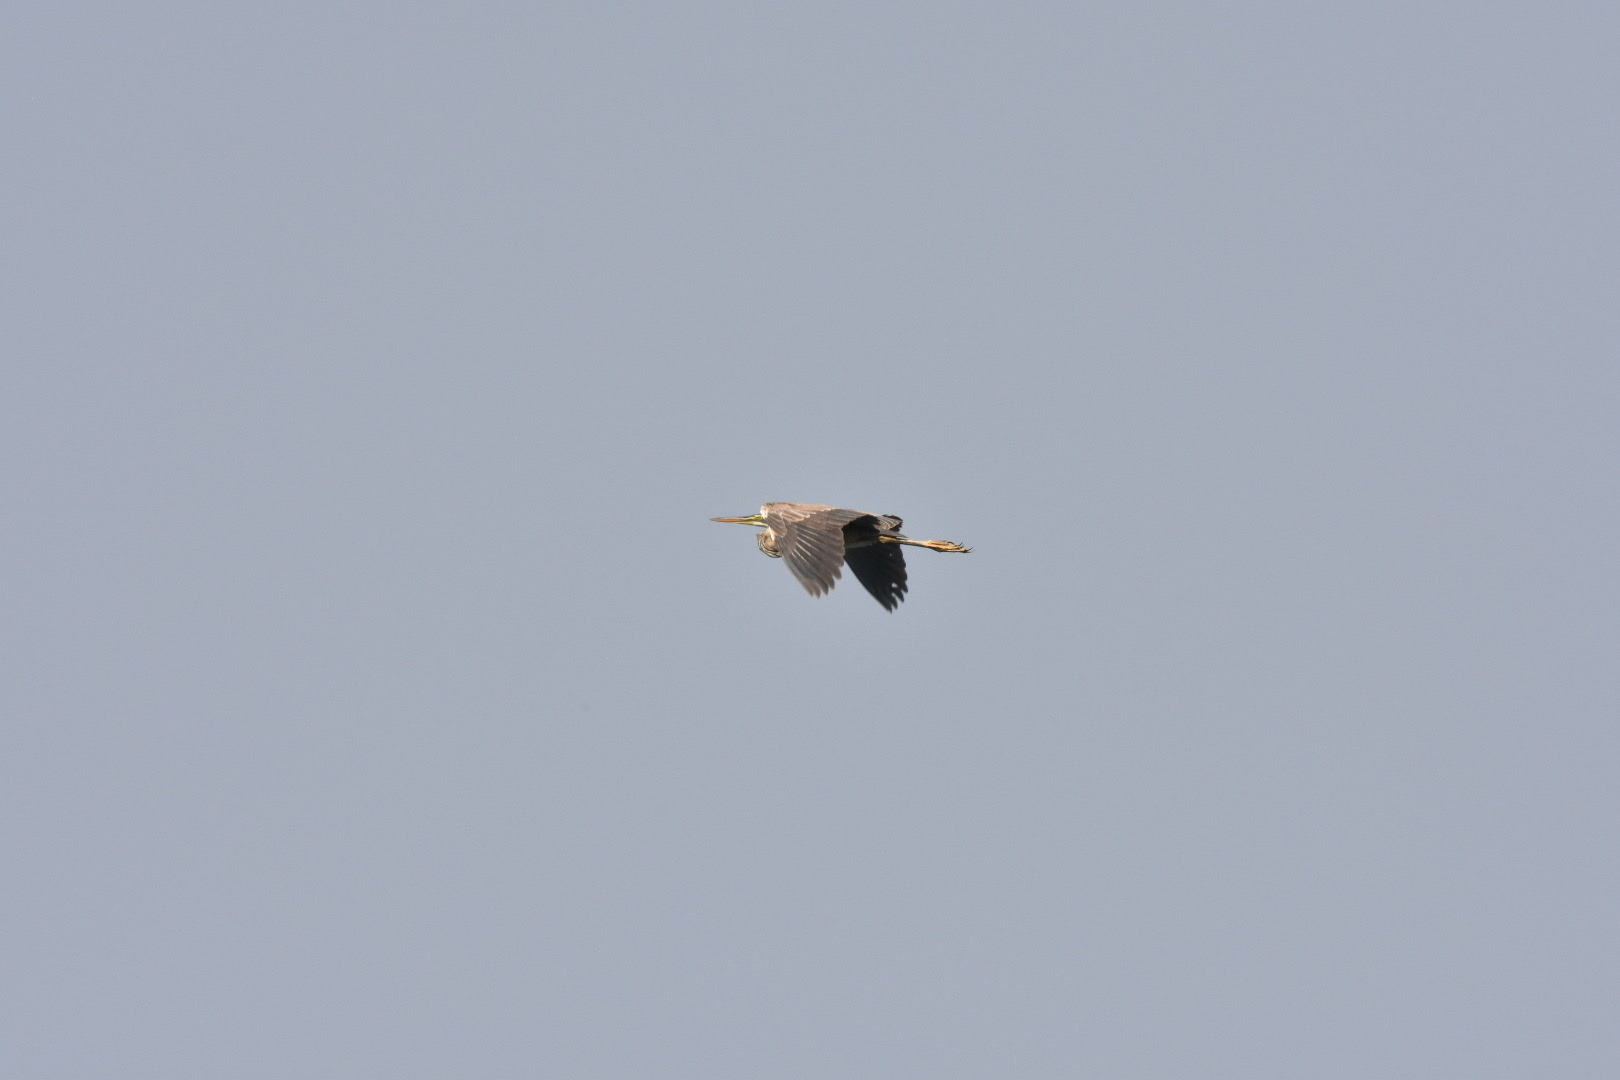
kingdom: Animalia
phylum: Chordata
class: Aves
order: Pelecaniformes
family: Ardeidae
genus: Ardea
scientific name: Ardea purpurea
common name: Purple heron
